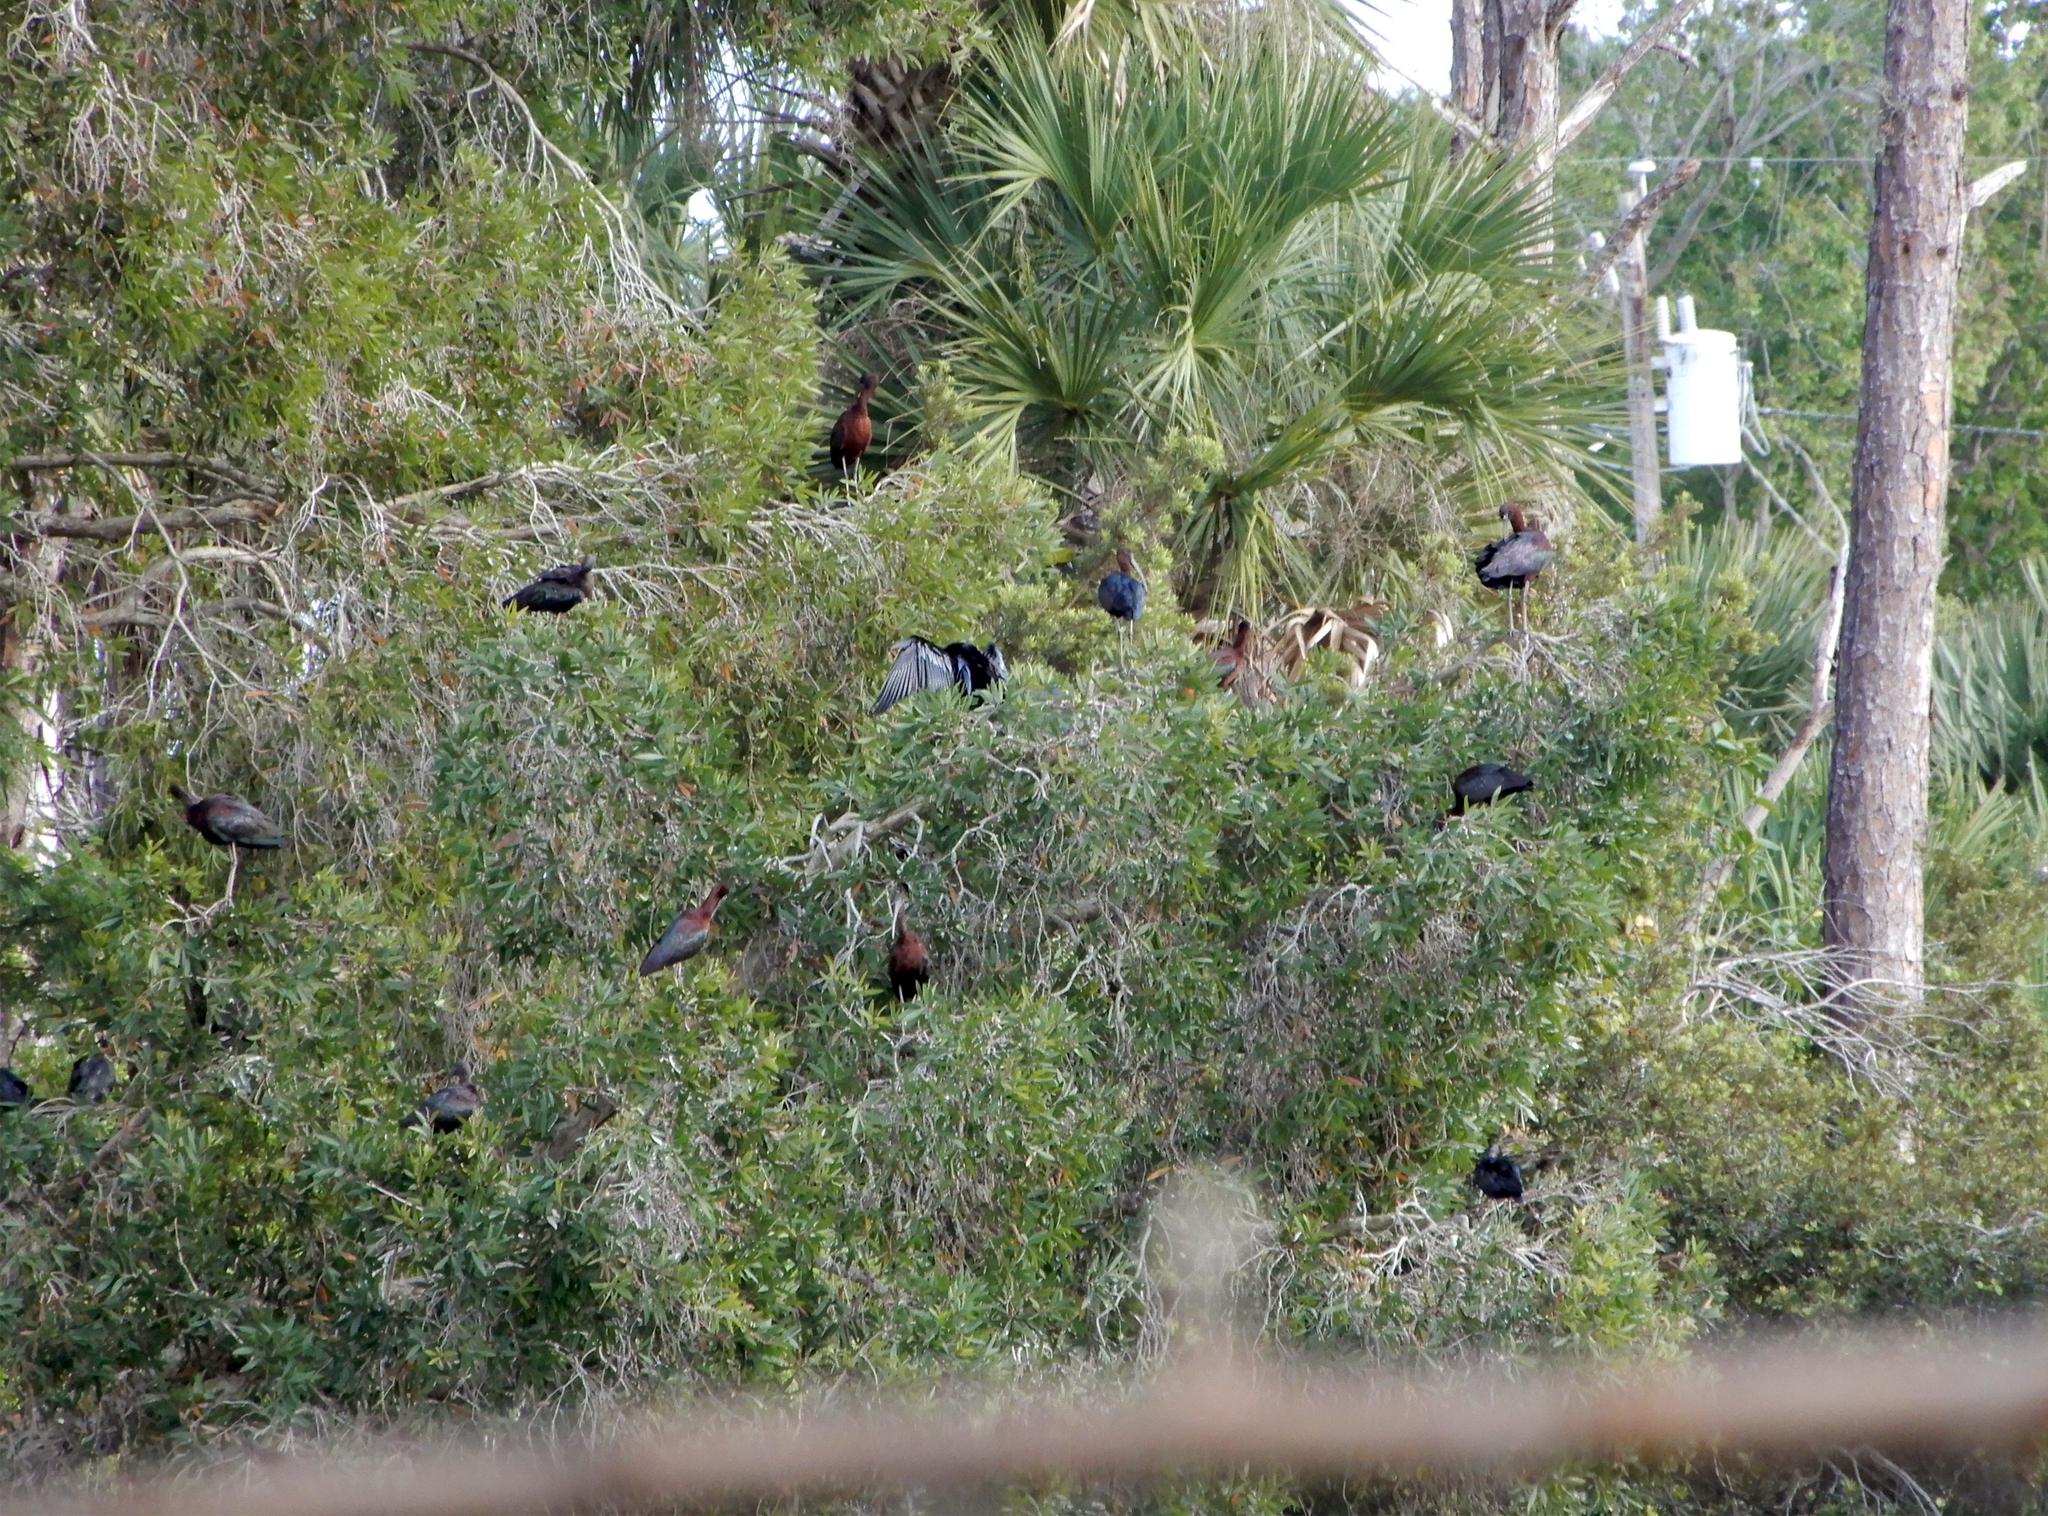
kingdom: Animalia
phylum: Chordata
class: Aves
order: Pelecaniformes
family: Threskiornithidae
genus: Plegadis
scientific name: Plegadis falcinellus
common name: Glossy ibis
